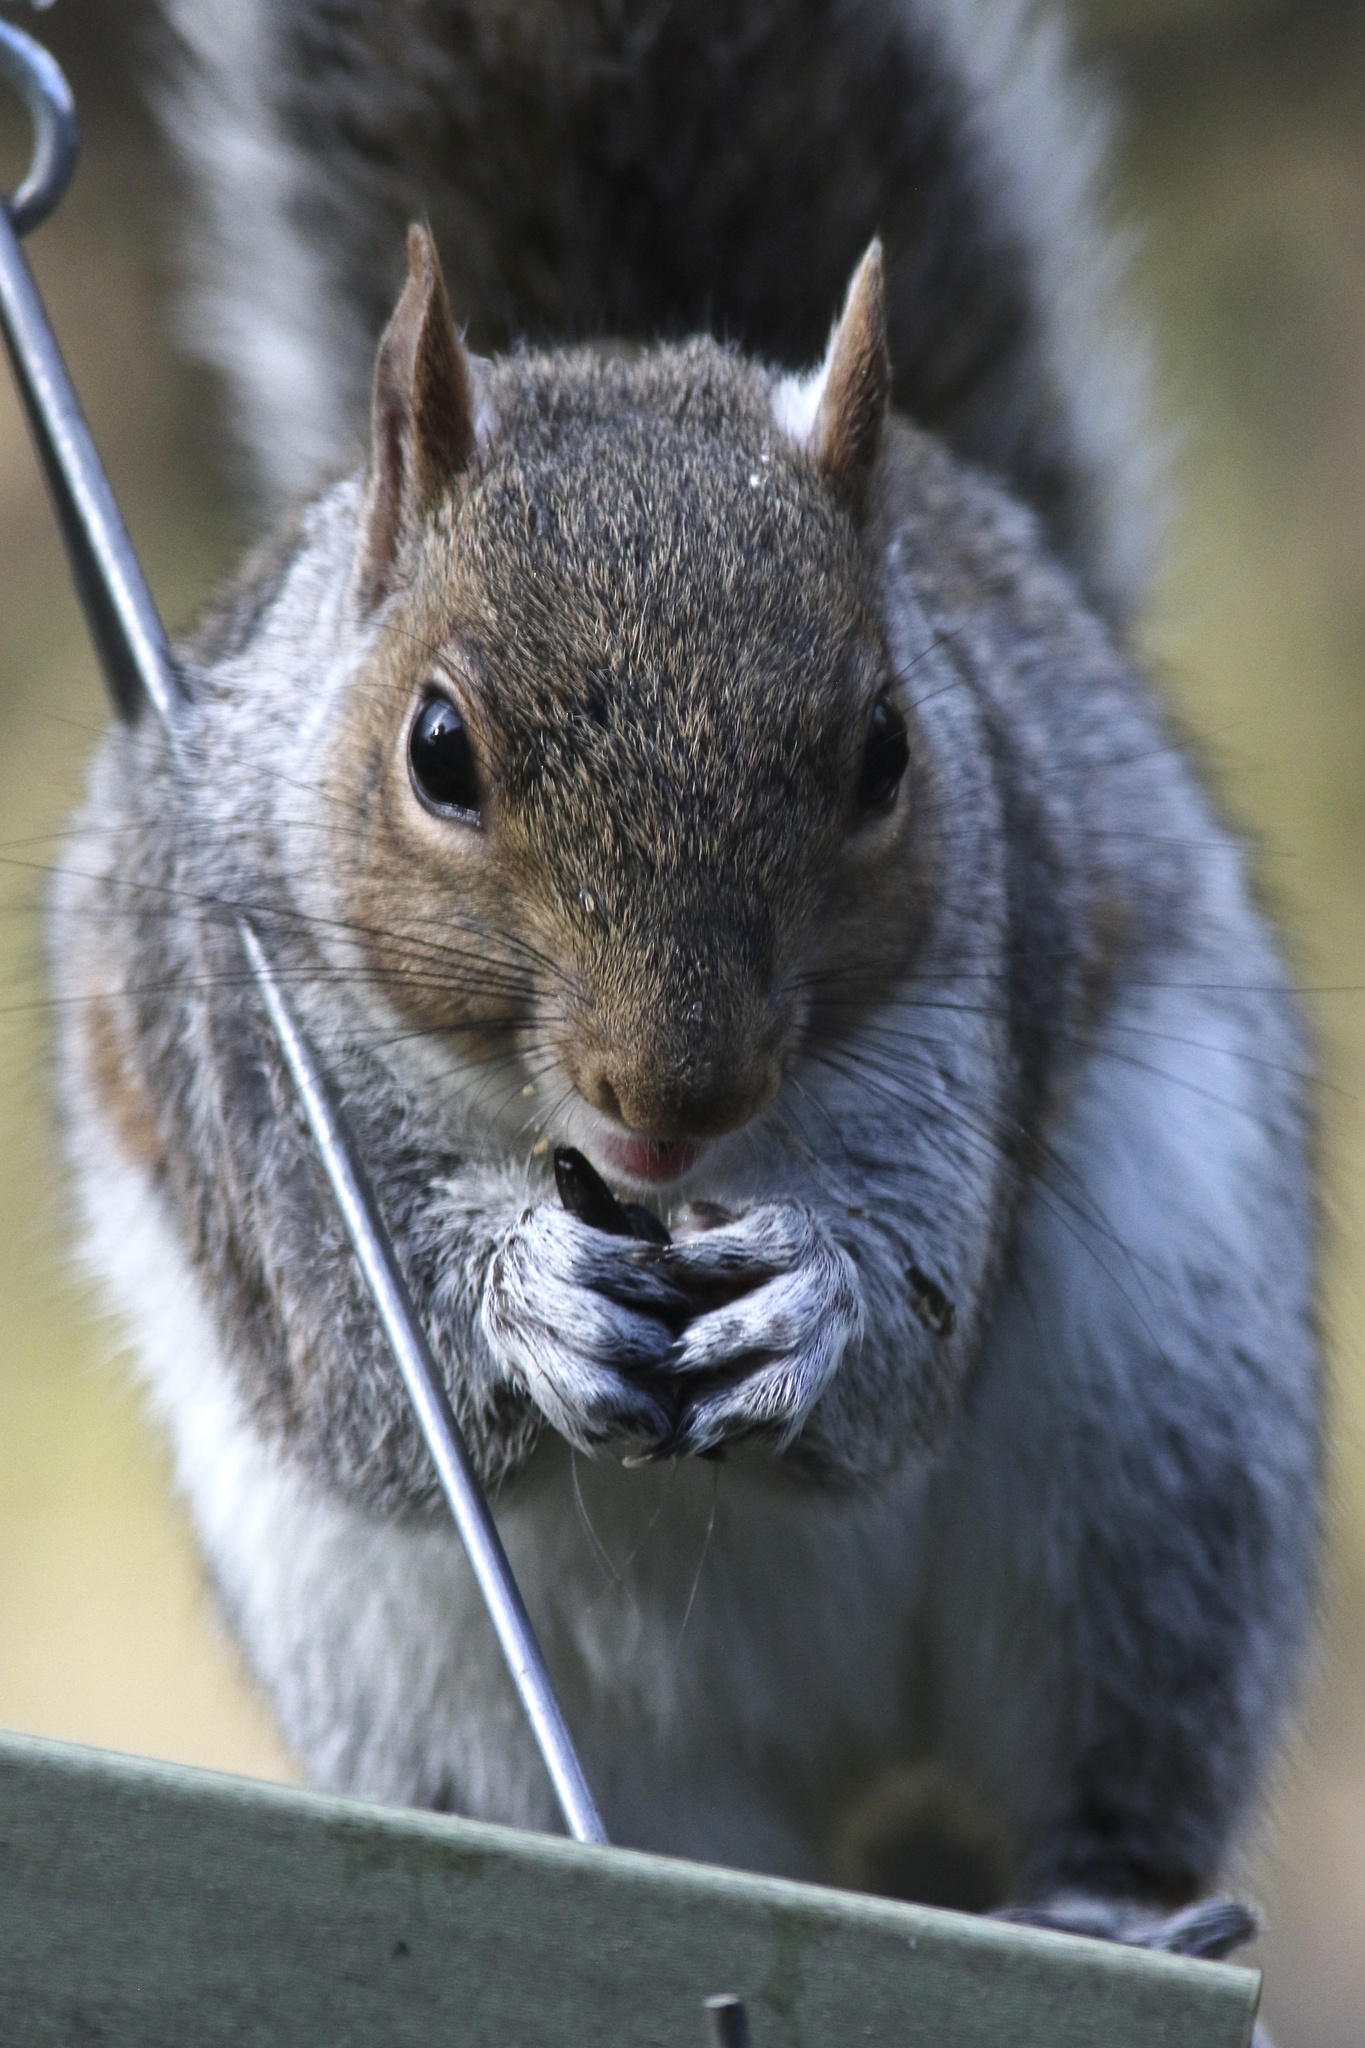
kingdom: Animalia
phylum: Chordata
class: Mammalia
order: Rodentia
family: Sciuridae
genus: Sciurus
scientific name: Sciurus carolinensis
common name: Eastern gray squirrel
